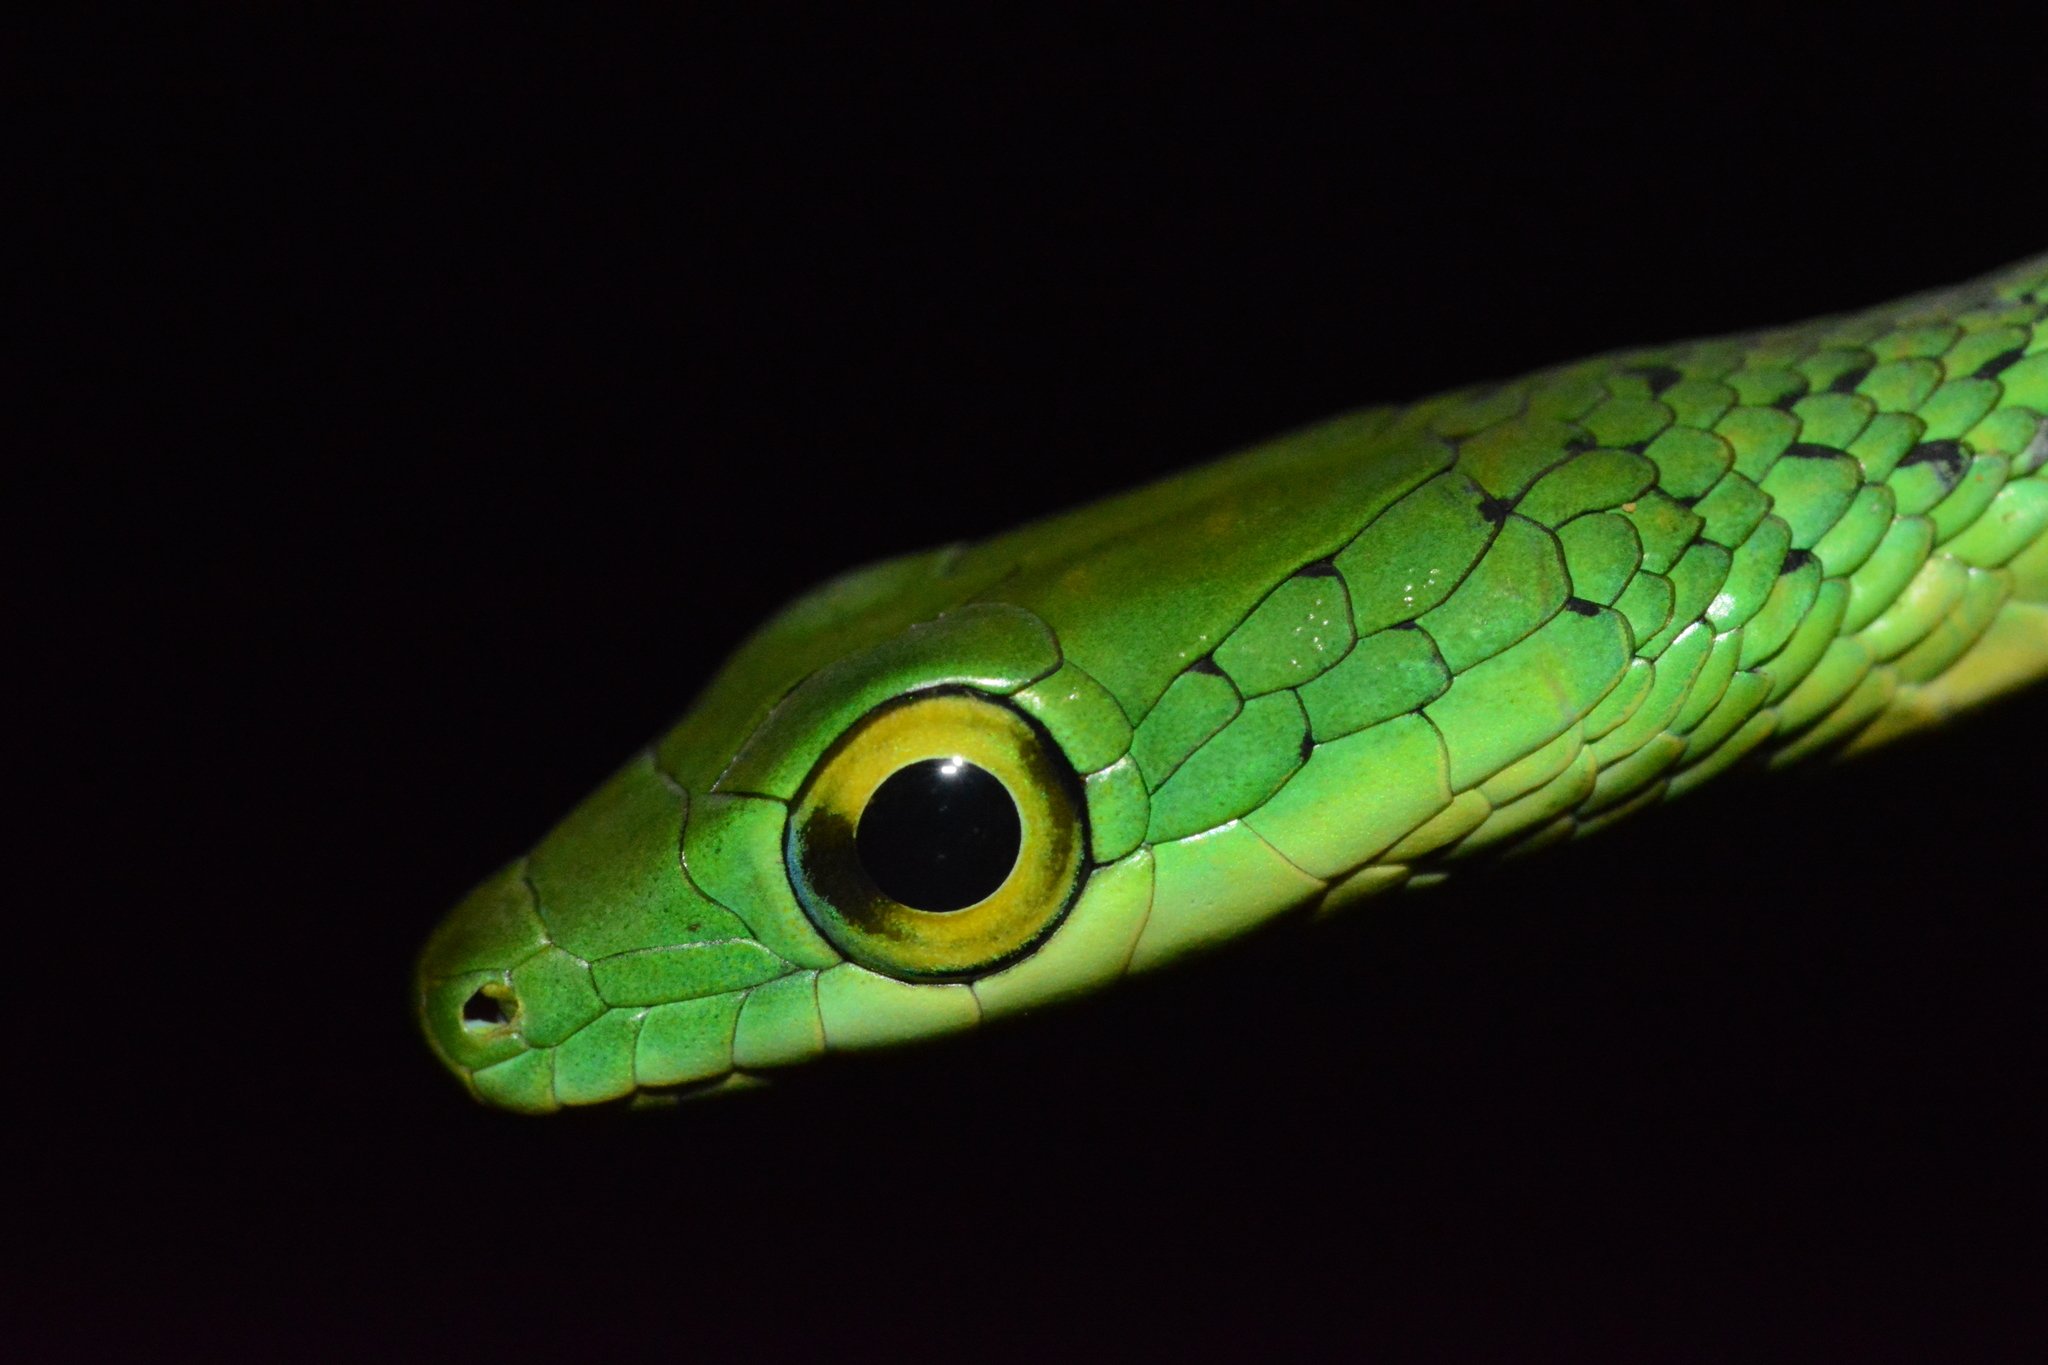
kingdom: Animalia
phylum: Chordata
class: Squamata
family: Colubridae
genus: Philothamnus
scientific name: Philothamnus punctatus
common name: Spotted green snake
